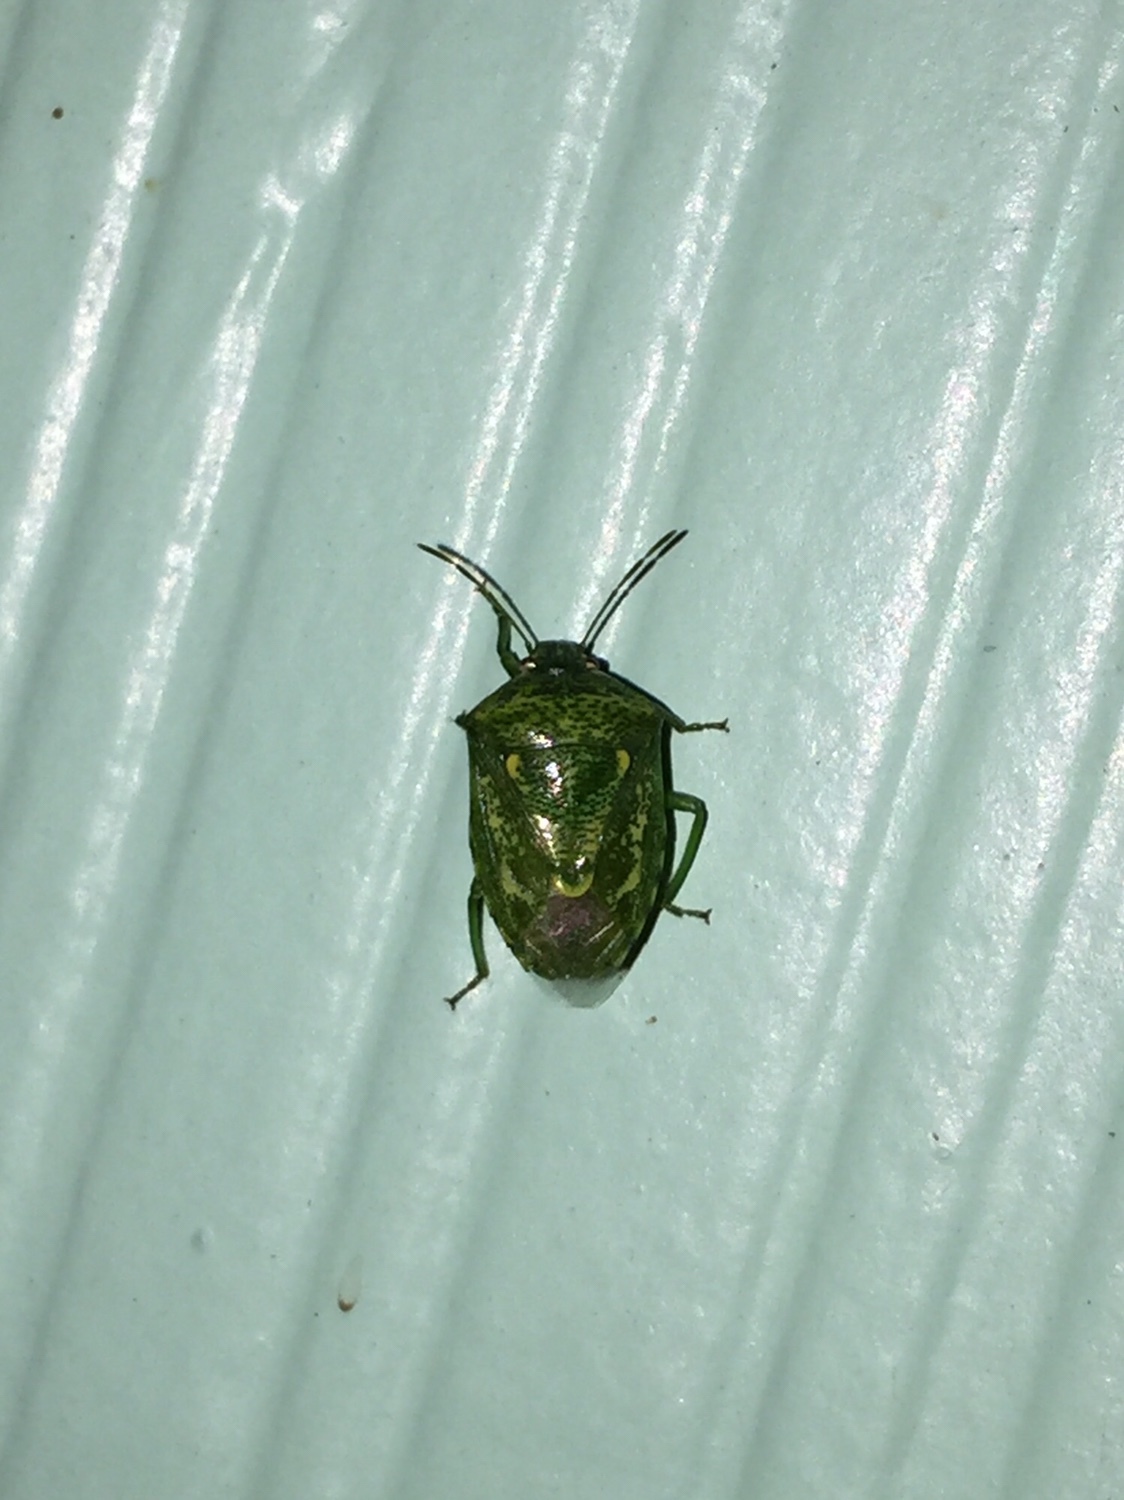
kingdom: Animalia
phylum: Arthropoda
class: Insecta
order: Hemiptera
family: Pentatomidae
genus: Banasa
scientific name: Banasa euchlora
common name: Cedar berry bug
